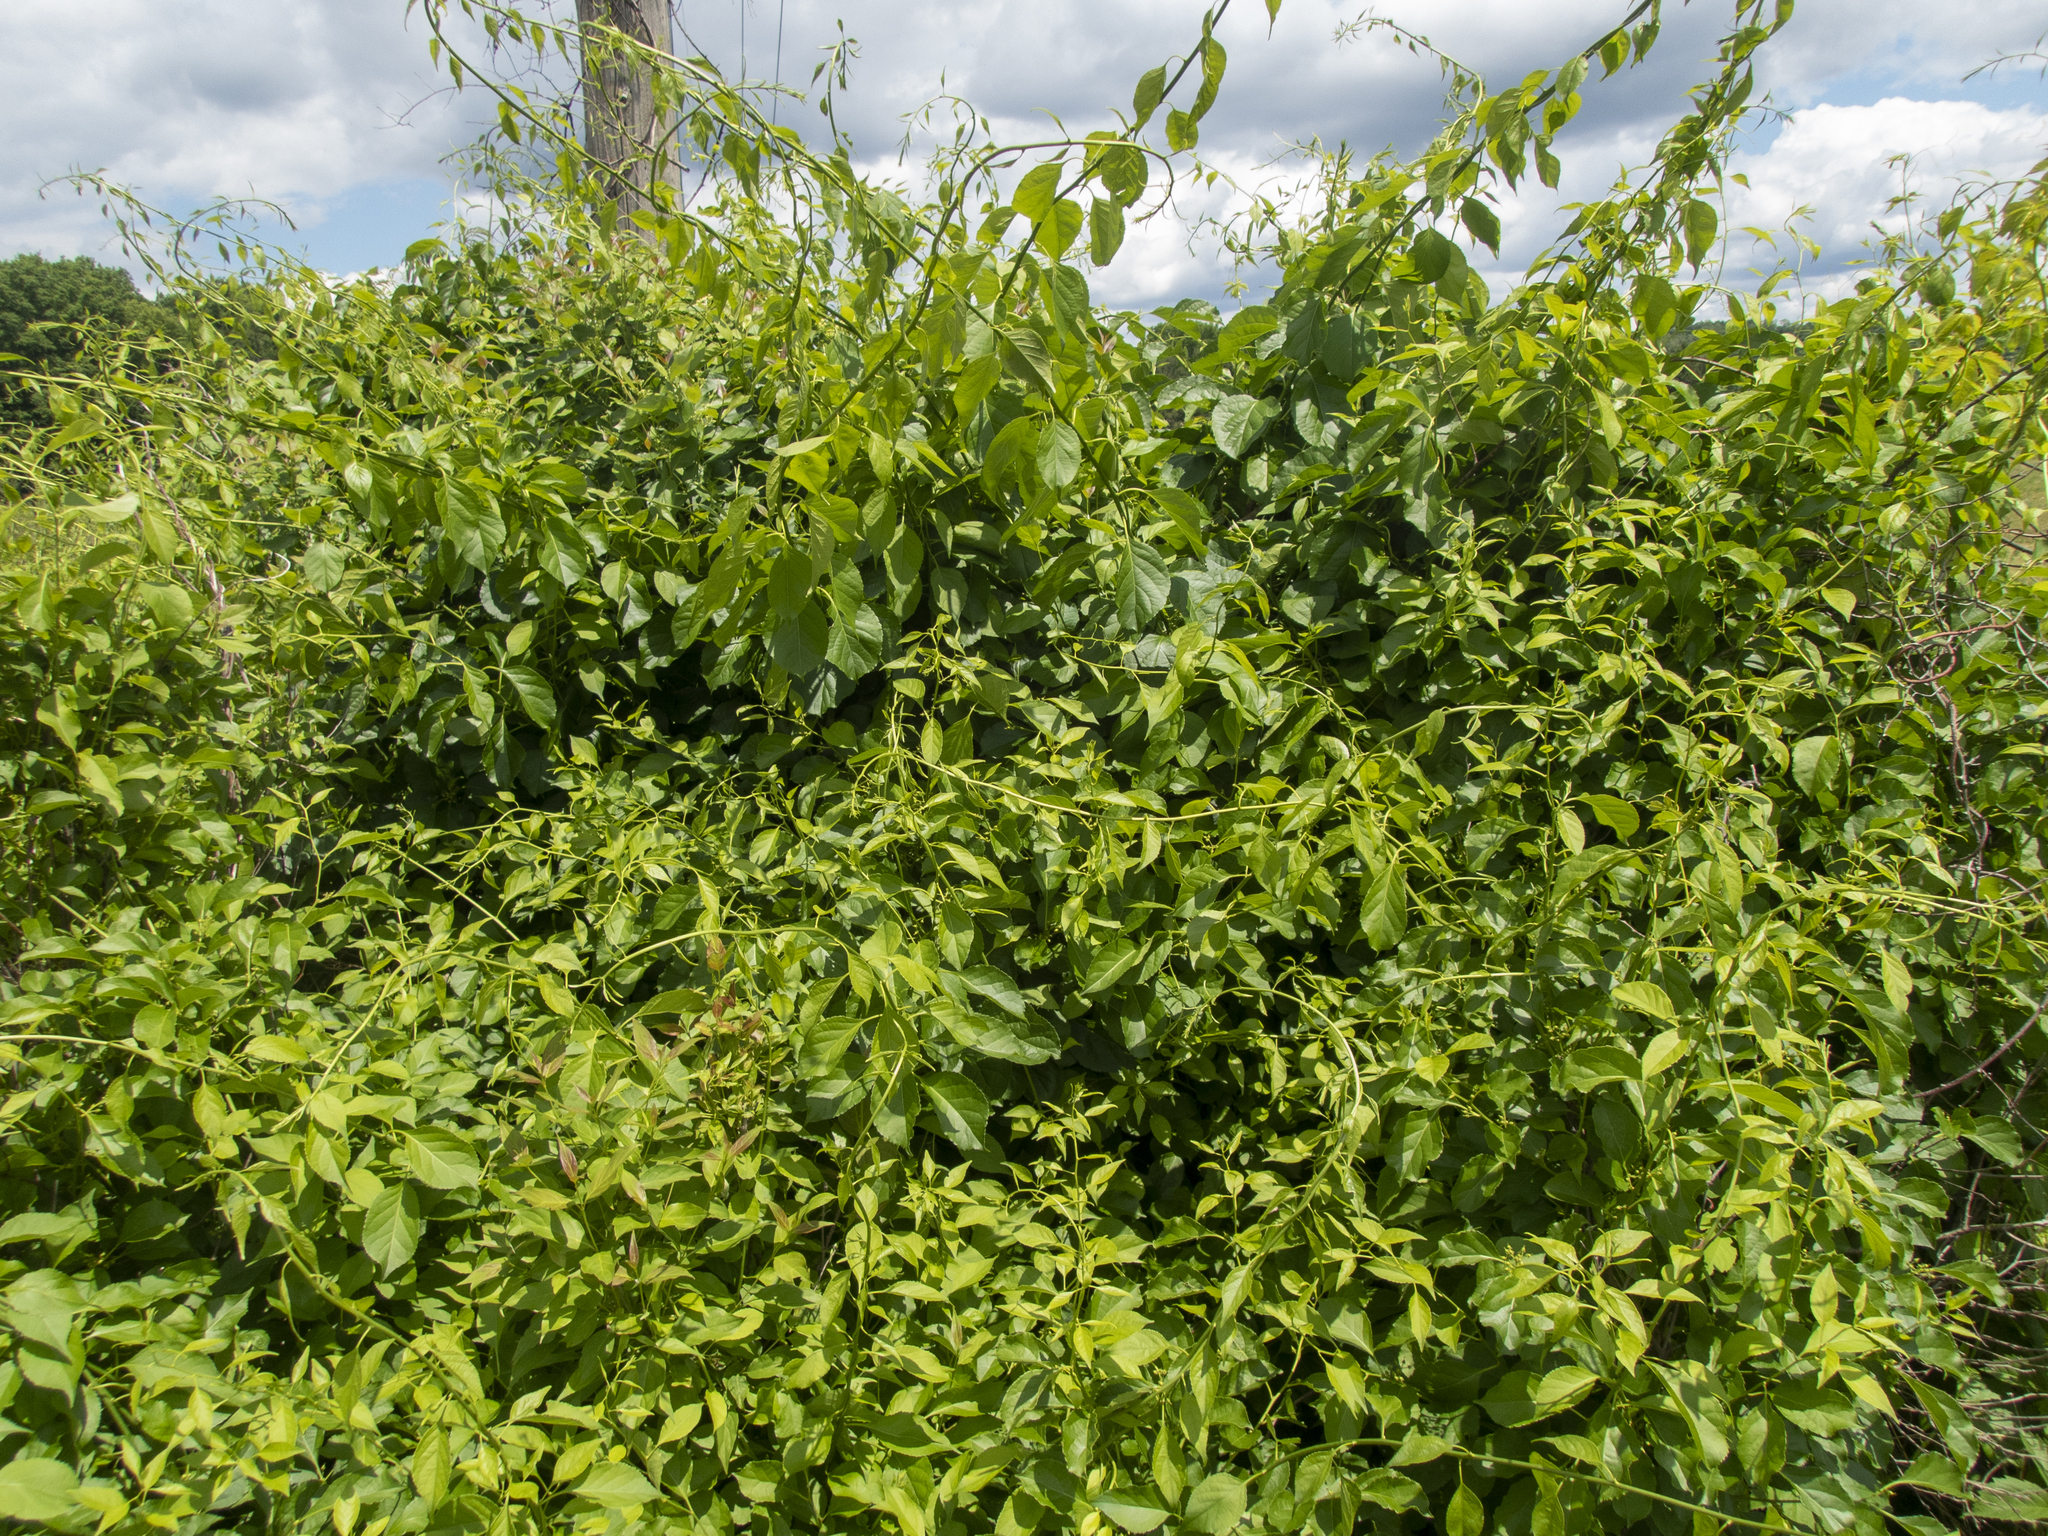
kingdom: Plantae
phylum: Tracheophyta
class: Magnoliopsida
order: Celastrales
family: Celastraceae
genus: Celastrus
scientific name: Celastrus orbiculatus
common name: Oriental bittersweet
